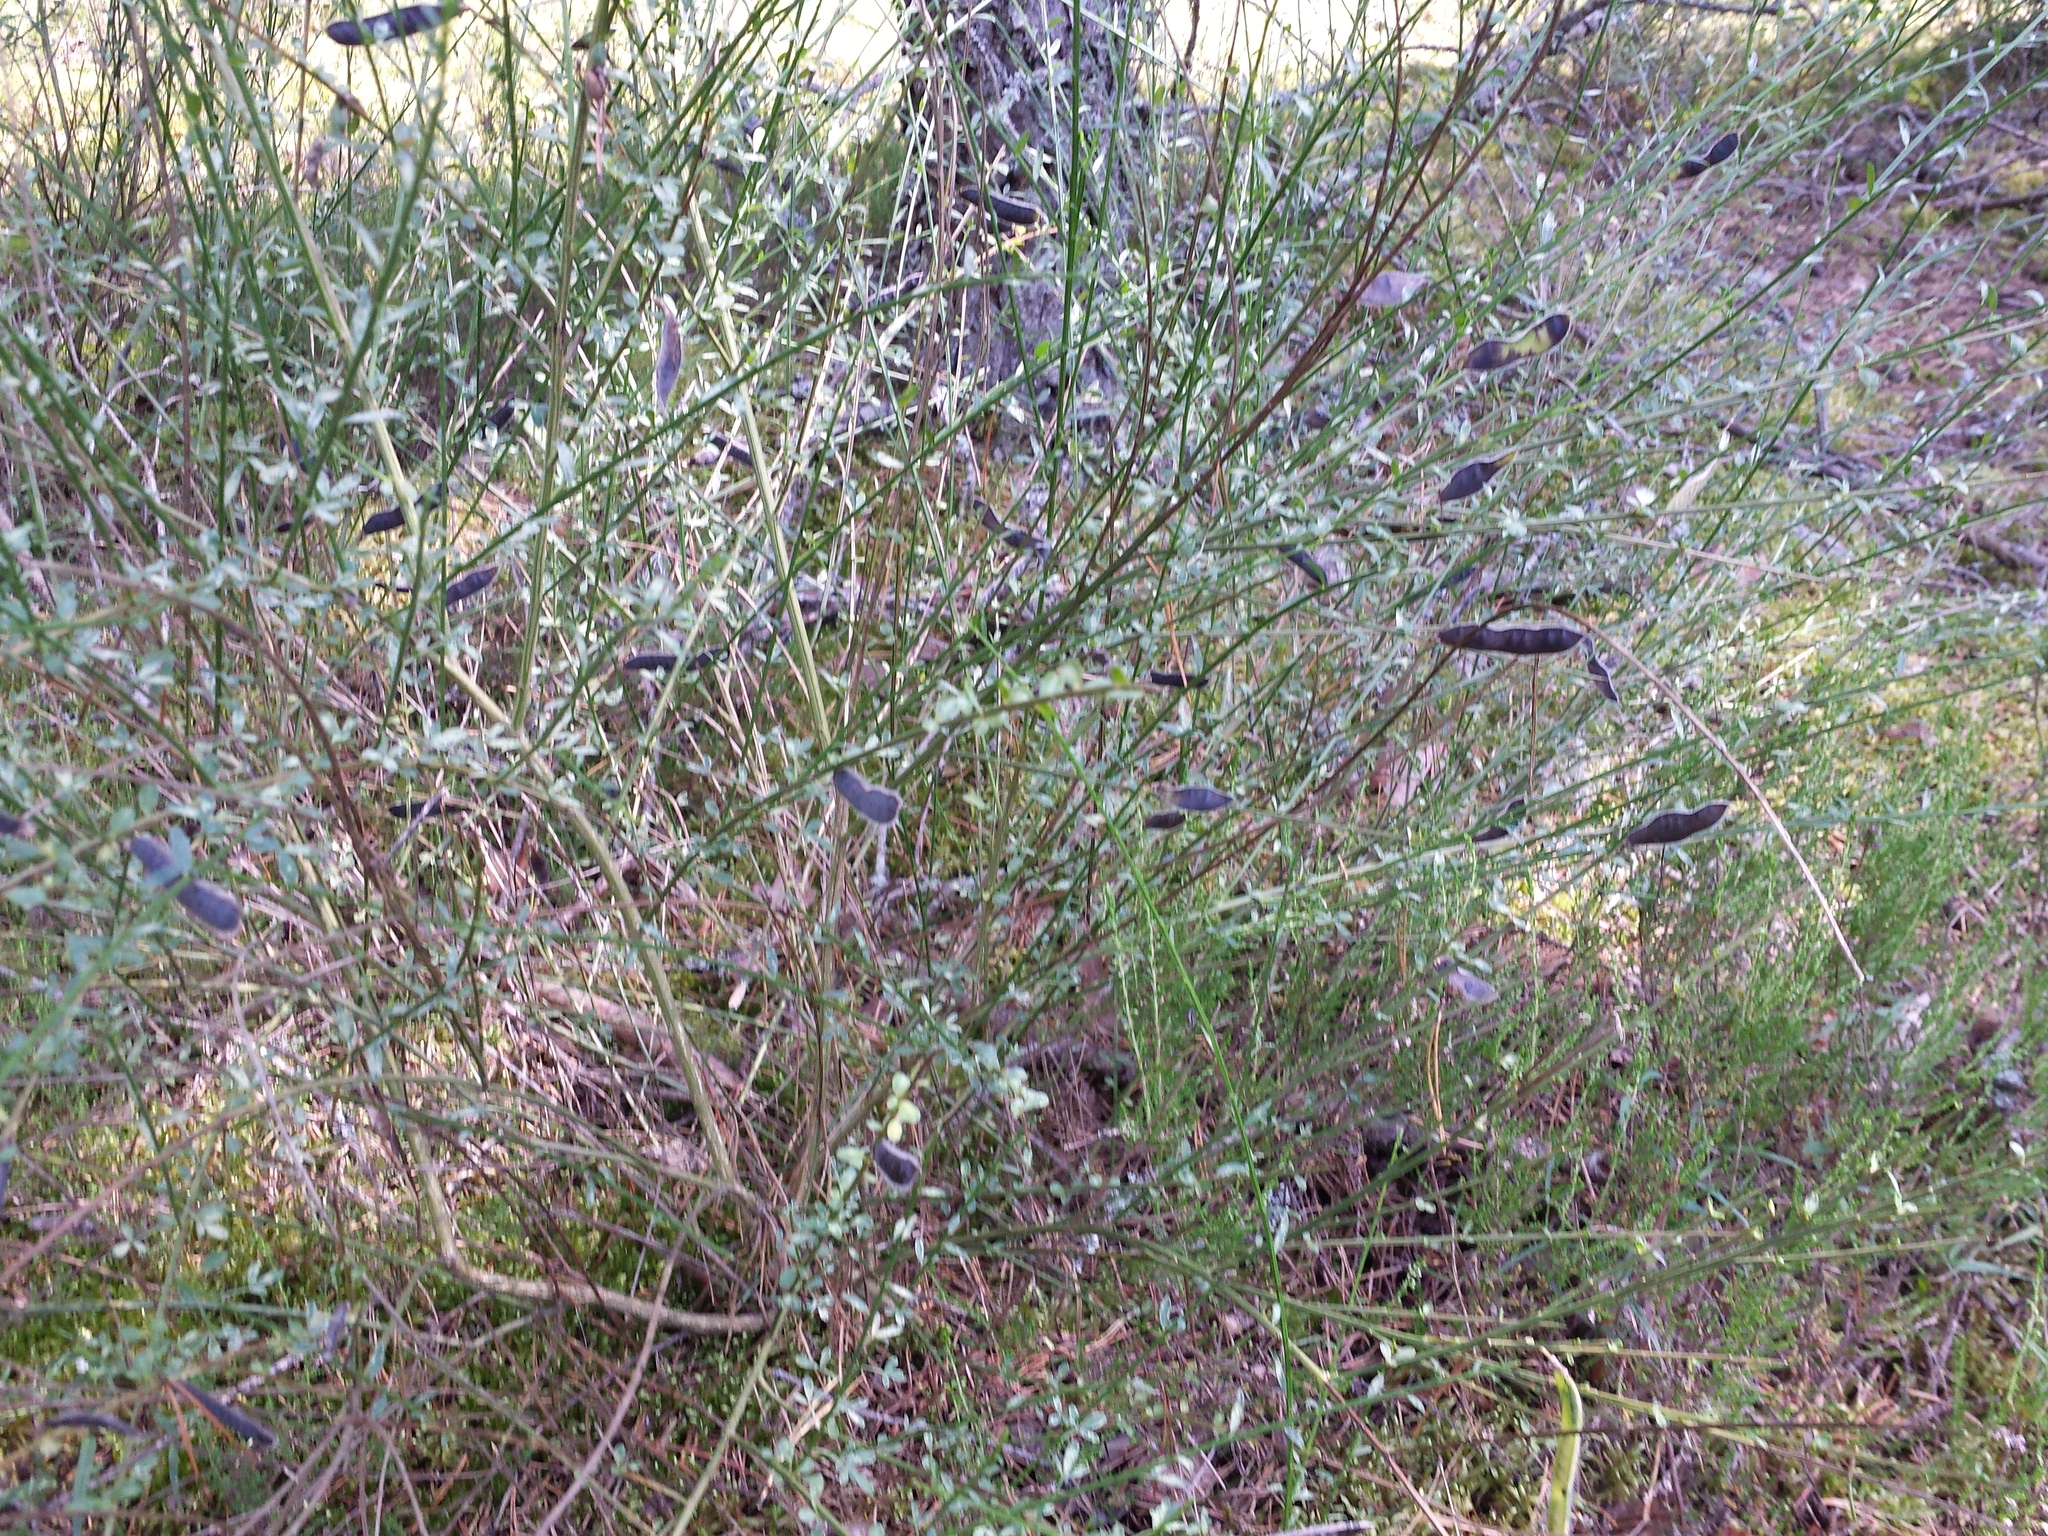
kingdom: Plantae
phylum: Tracheophyta
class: Magnoliopsida
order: Fabales
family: Fabaceae
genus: Cytisus
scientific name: Cytisus scoparius
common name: Scotch broom
